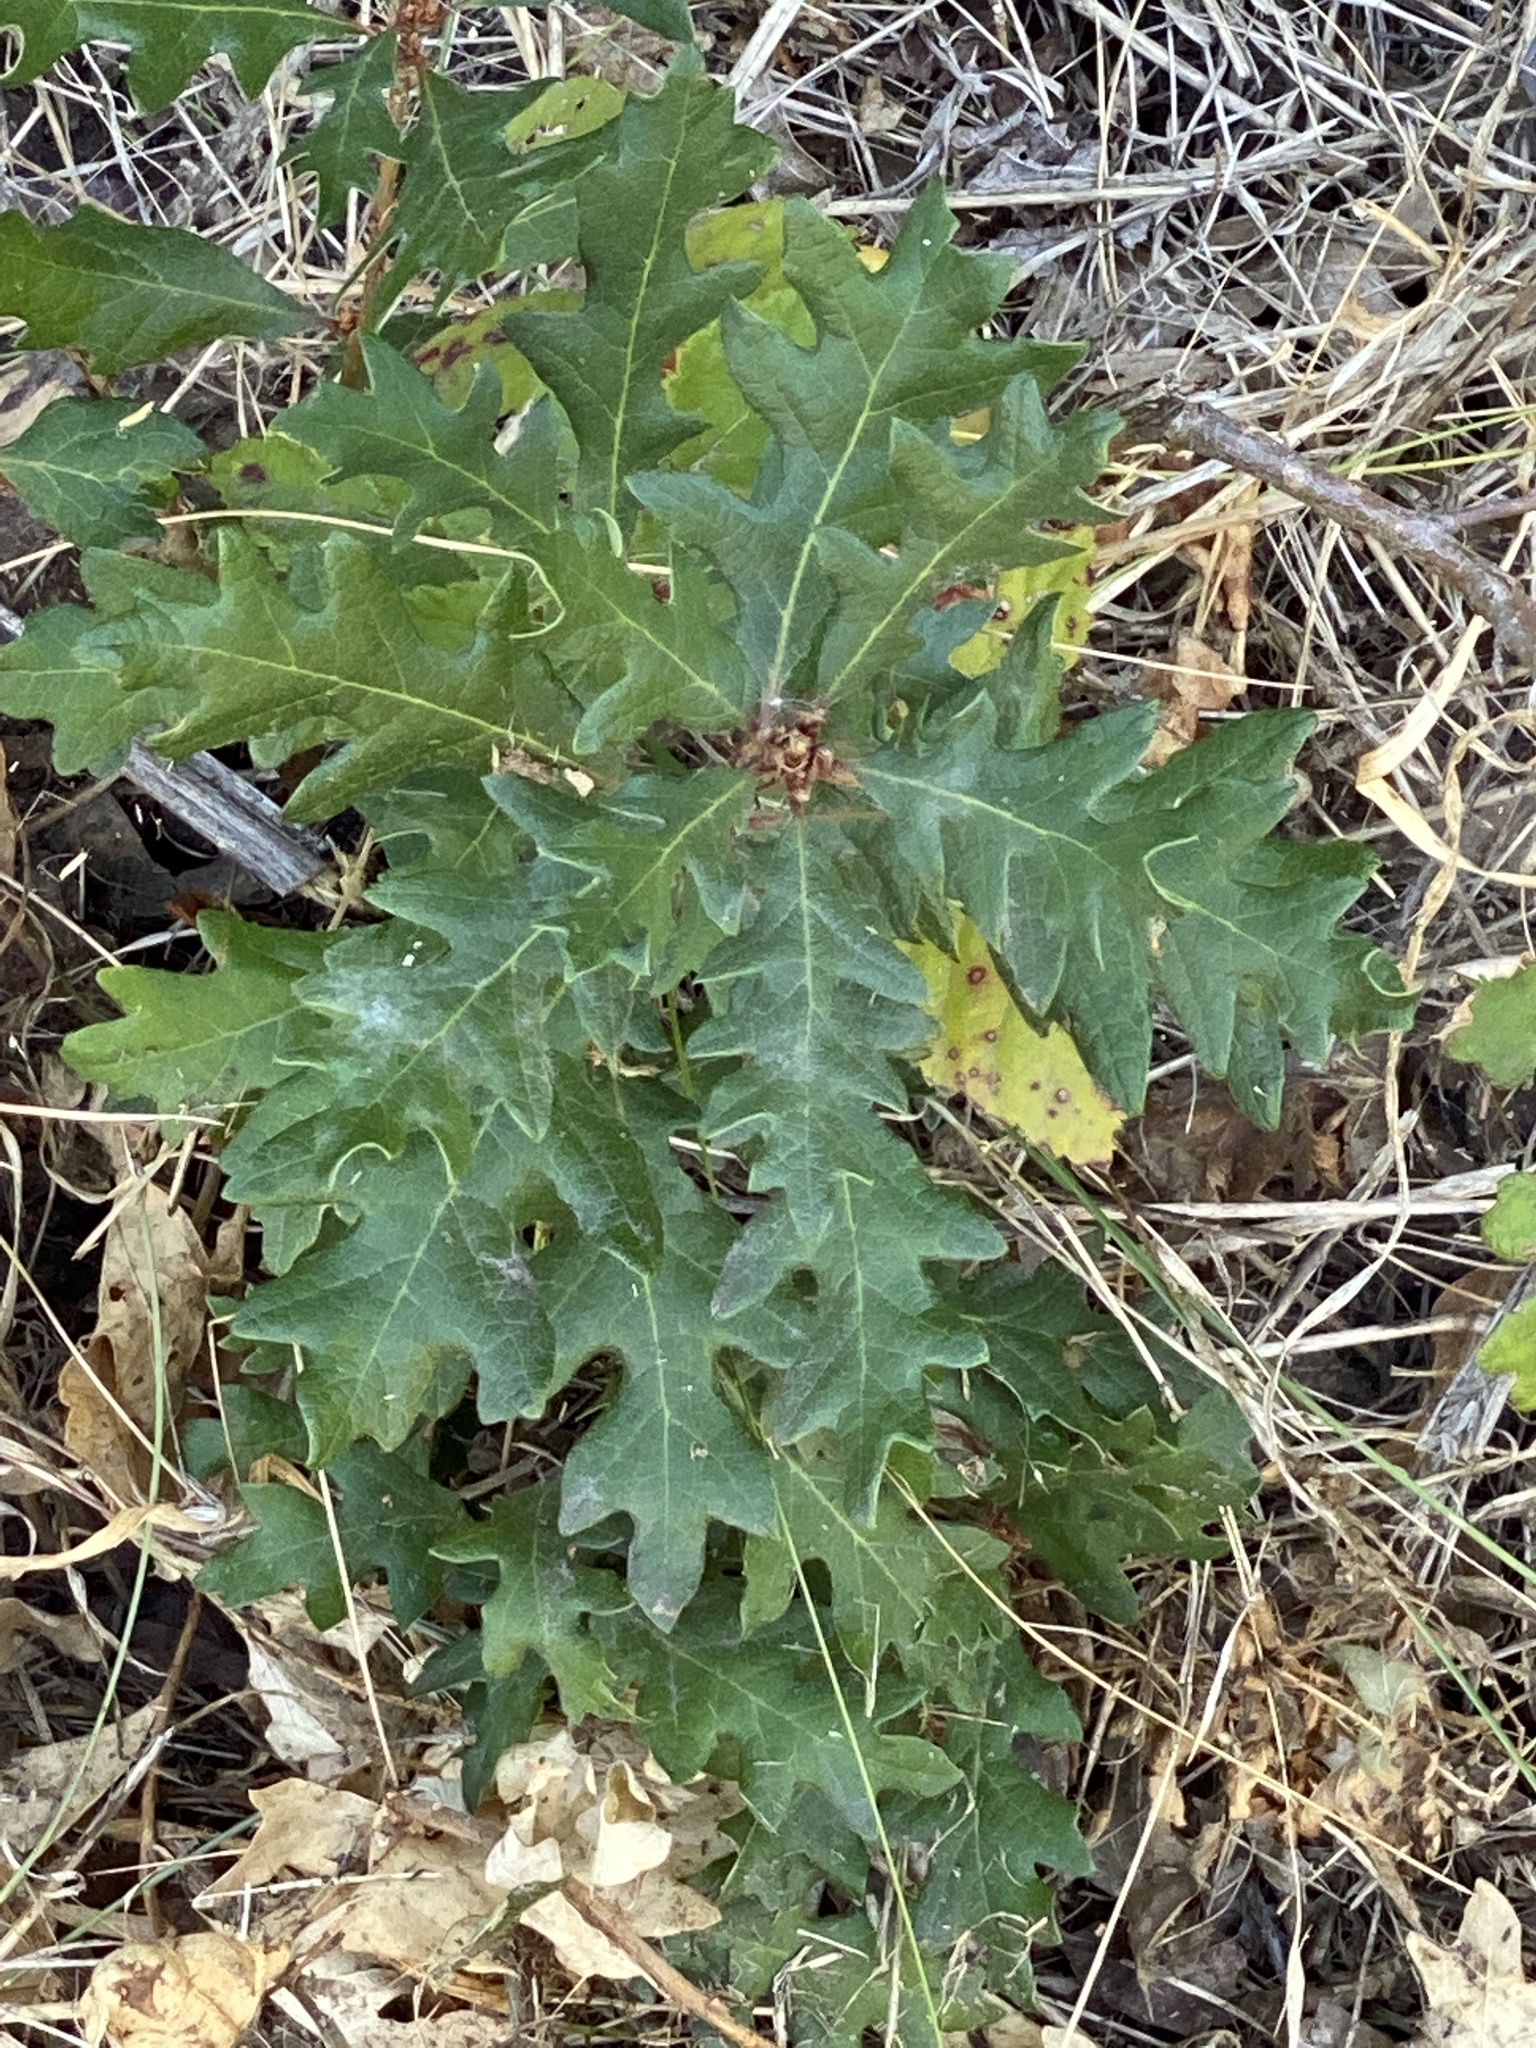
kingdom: Plantae
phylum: Tracheophyta
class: Magnoliopsida
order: Fagales
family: Fagaceae
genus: Quercus
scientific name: Quercus robur
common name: Pedunculate oak
